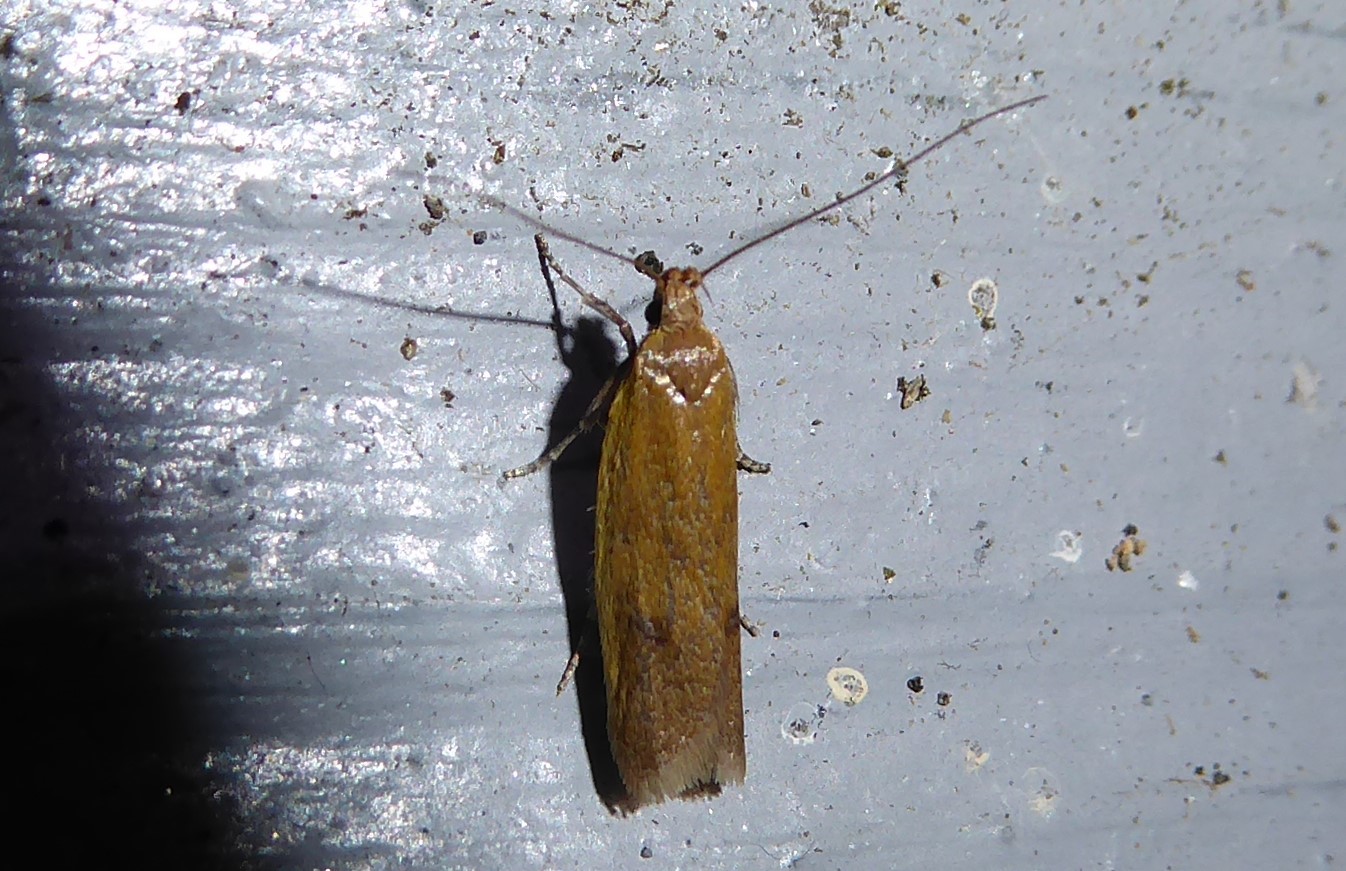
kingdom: Animalia
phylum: Arthropoda
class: Insecta
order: Lepidoptera
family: Oecophoridae
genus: Gymnobathra
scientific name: Gymnobathra parca
